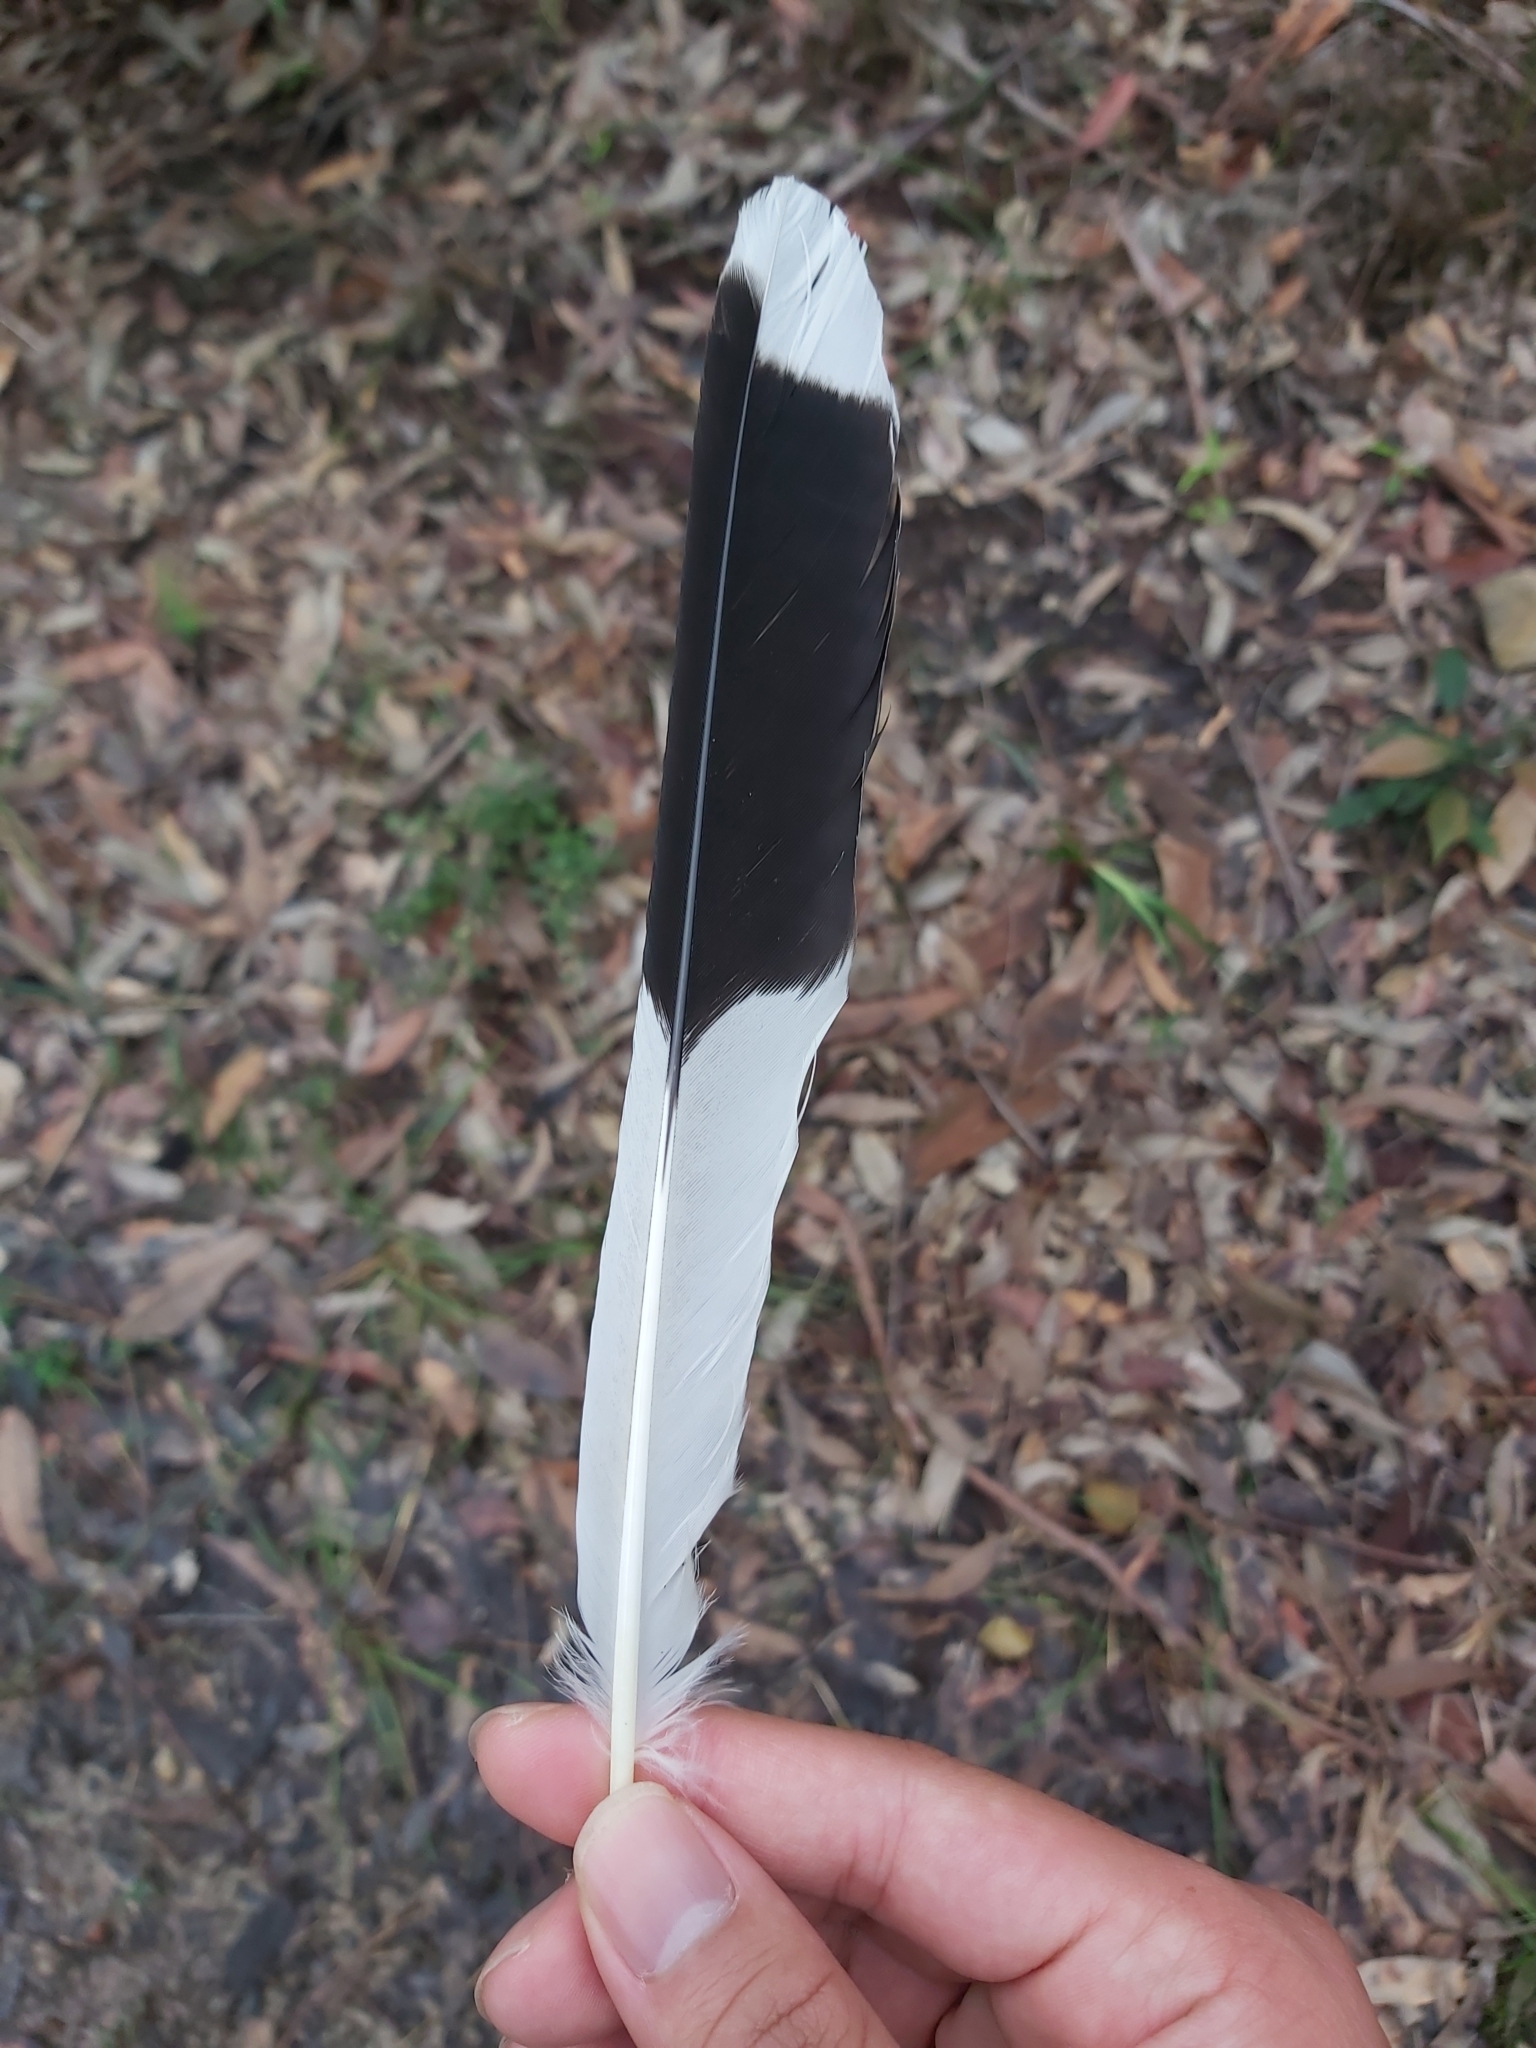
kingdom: Animalia
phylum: Chordata
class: Aves
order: Passeriformes
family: Cracticidae
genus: Strepera
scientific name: Strepera graculina
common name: Pied currawong
